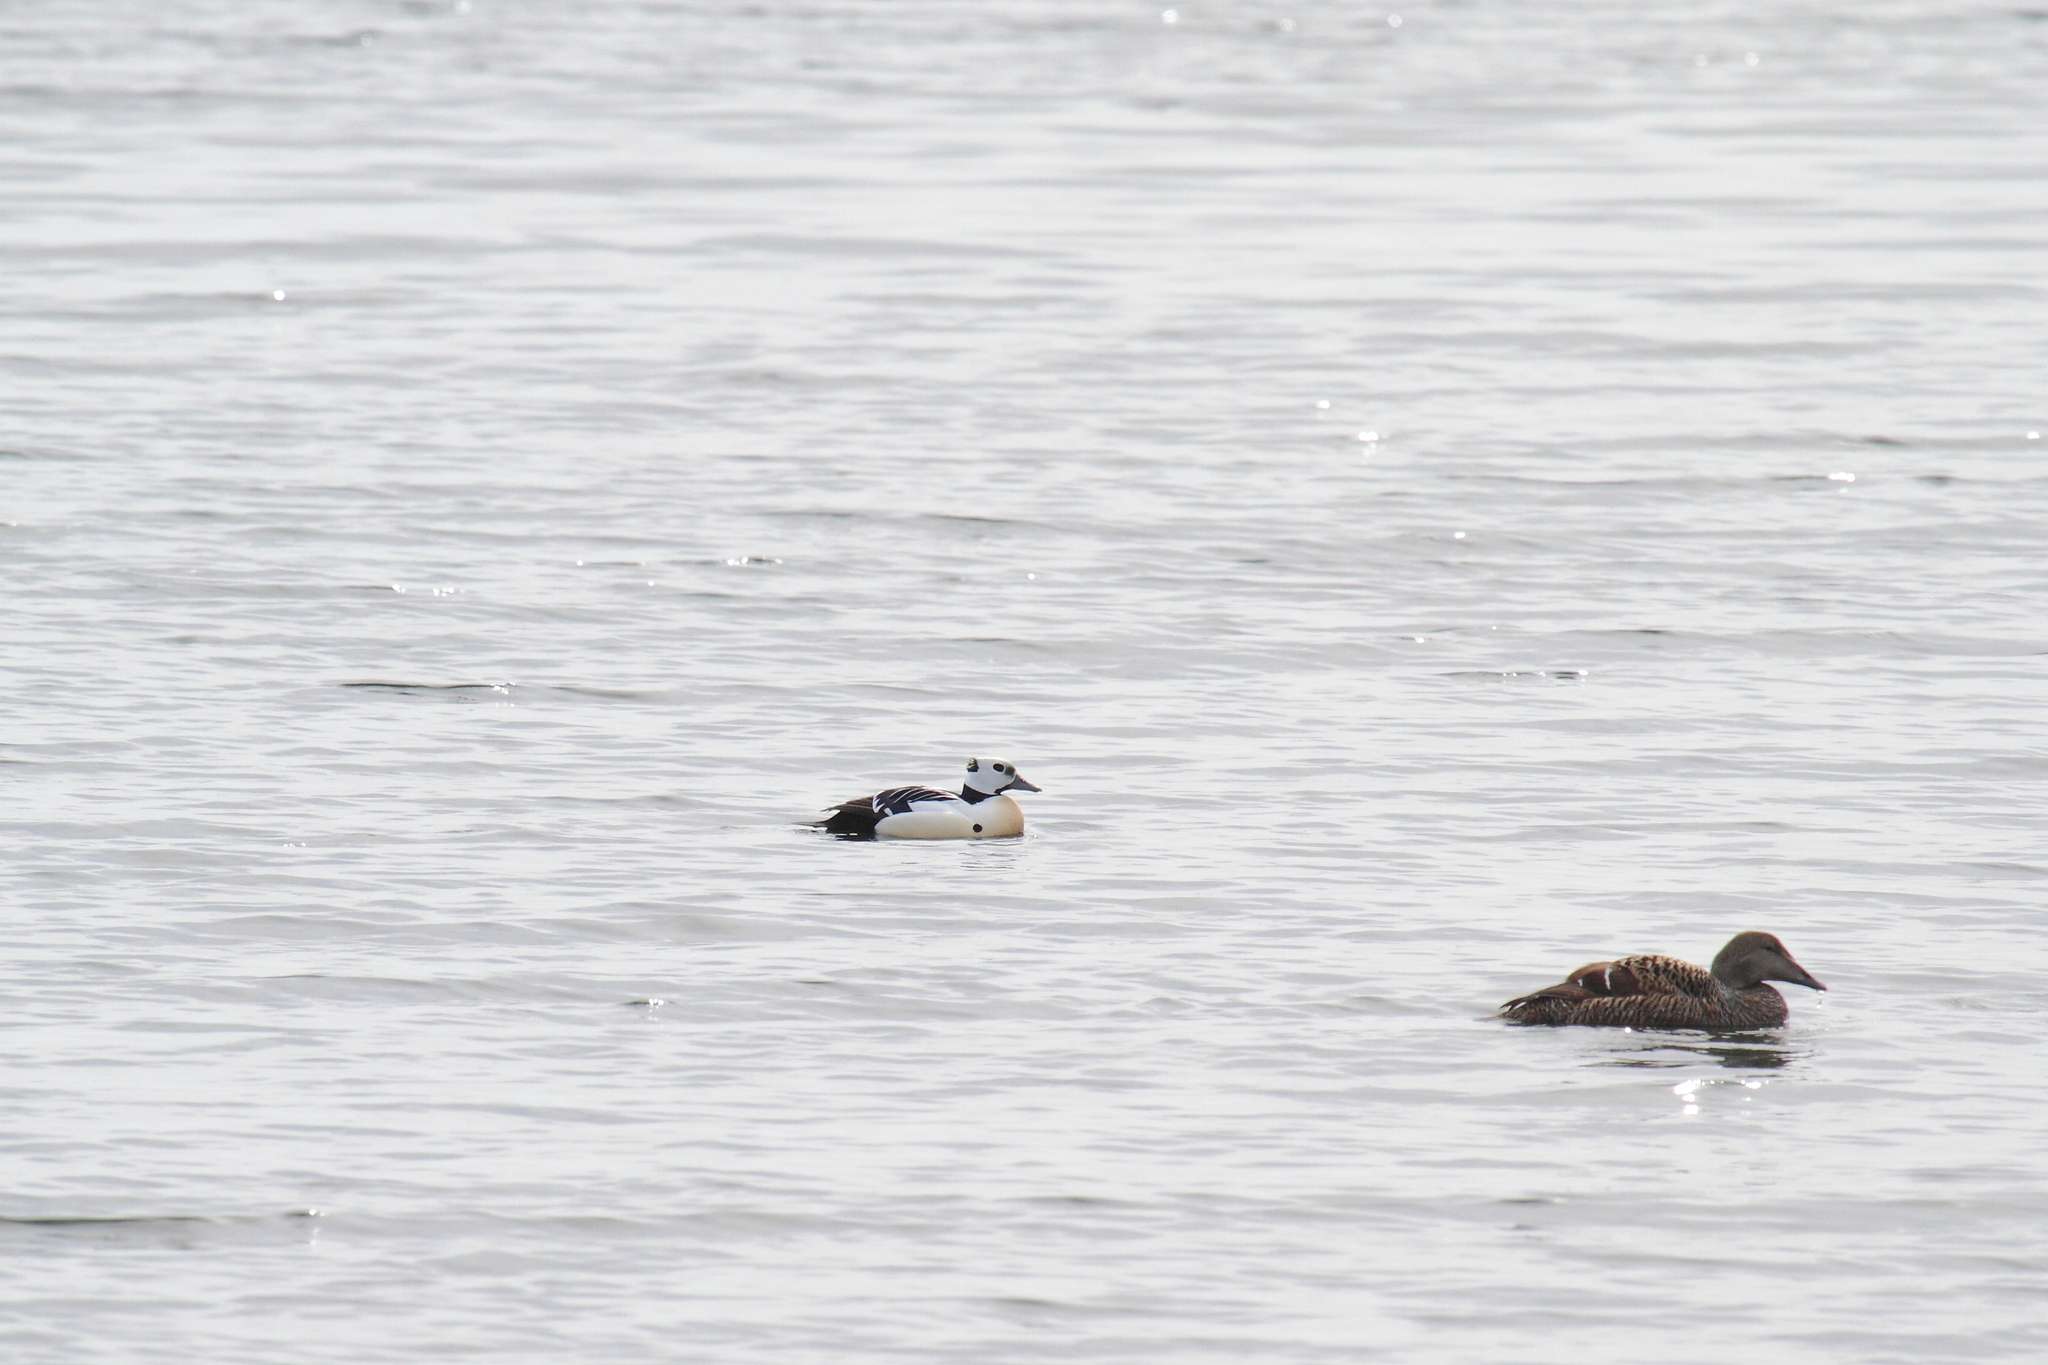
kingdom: Animalia
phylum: Chordata
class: Aves
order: Anseriformes
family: Anatidae
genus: Polysticta
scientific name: Polysticta stelleri
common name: Steller's eider
